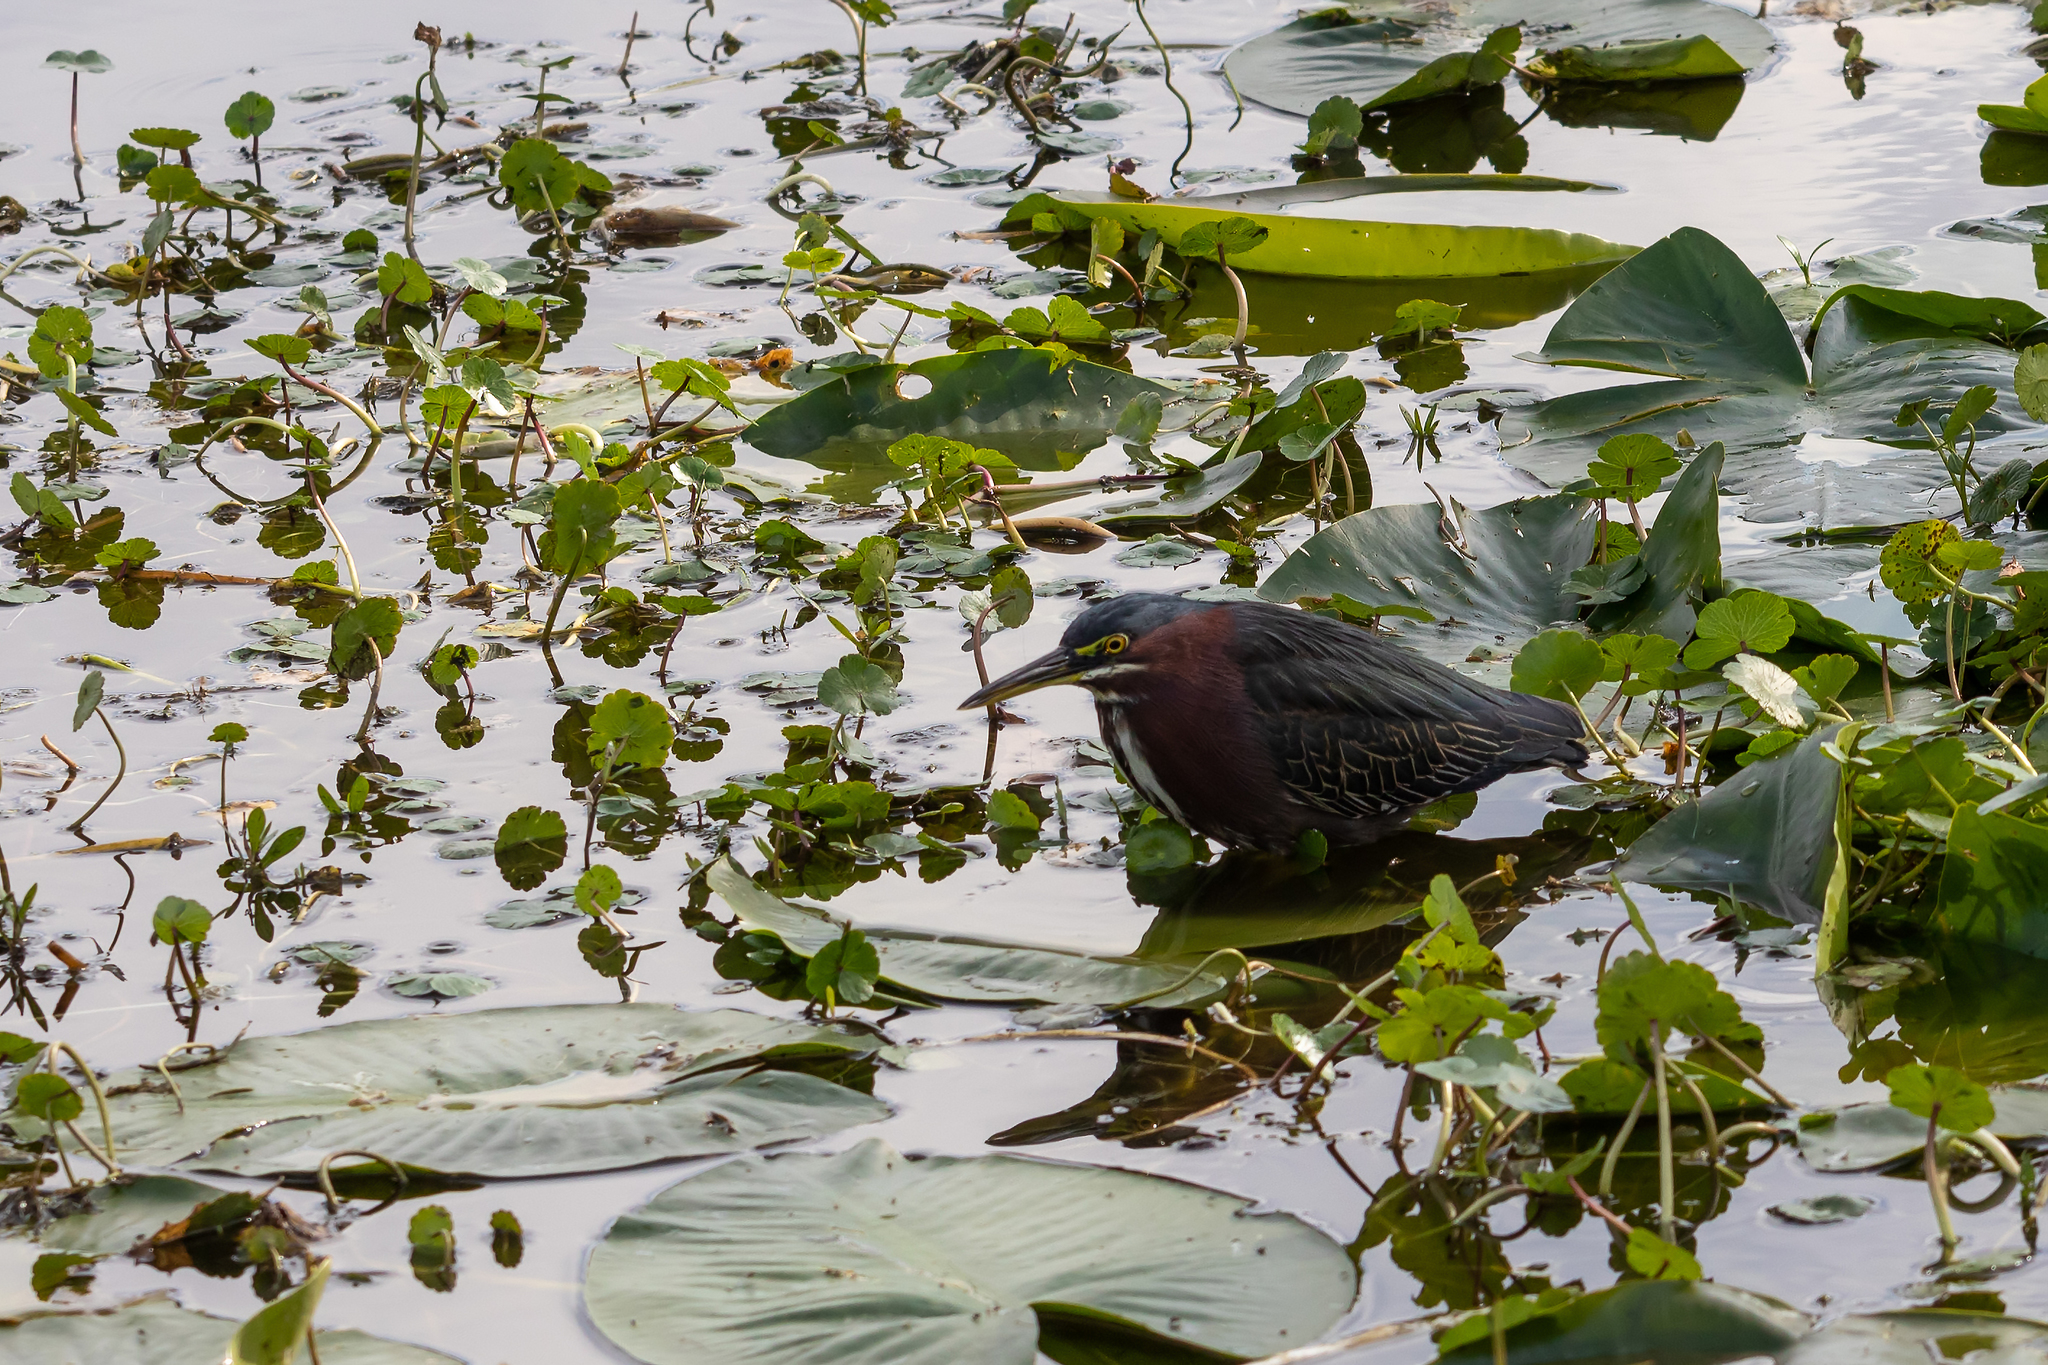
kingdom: Animalia
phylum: Chordata
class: Aves
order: Pelecaniformes
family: Ardeidae
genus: Butorides
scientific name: Butorides virescens
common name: Green heron
